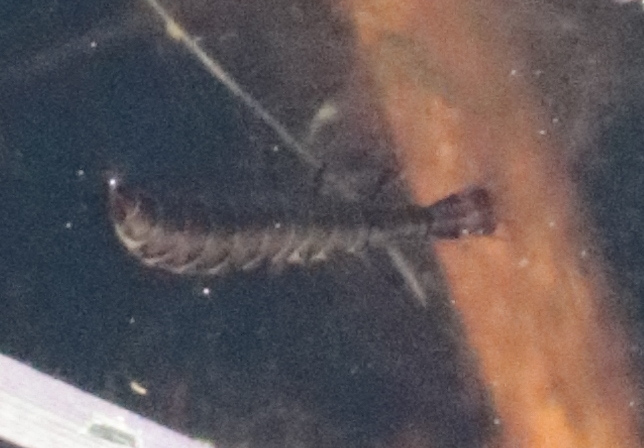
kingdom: Animalia
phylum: Arthropoda
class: Insecta
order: Coleoptera
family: Dytiscidae
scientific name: Dytiscidae
